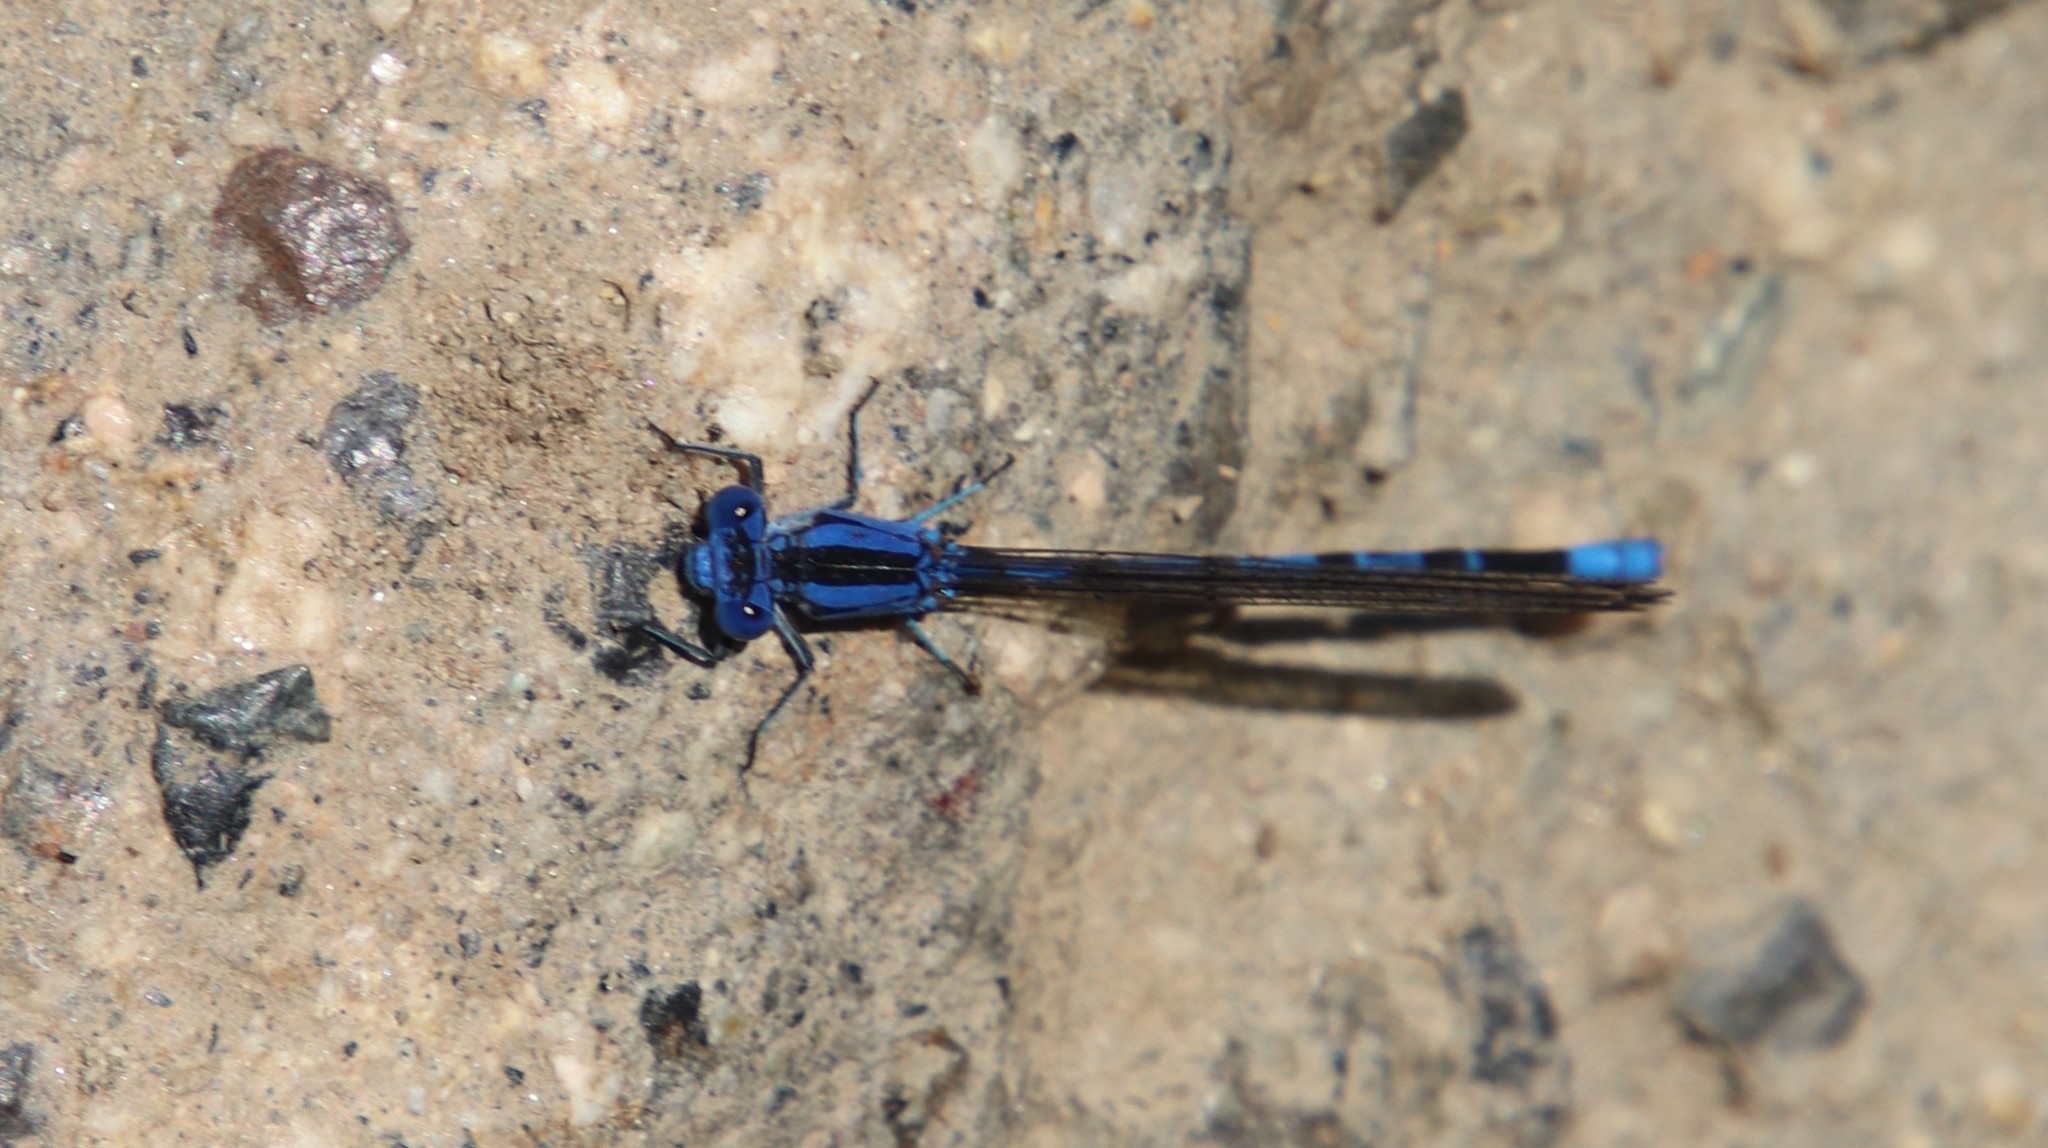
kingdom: Animalia
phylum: Arthropoda
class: Insecta
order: Odonata
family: Coenagrionidae
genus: Argia
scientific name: Argia vivida
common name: Vivid dancer
